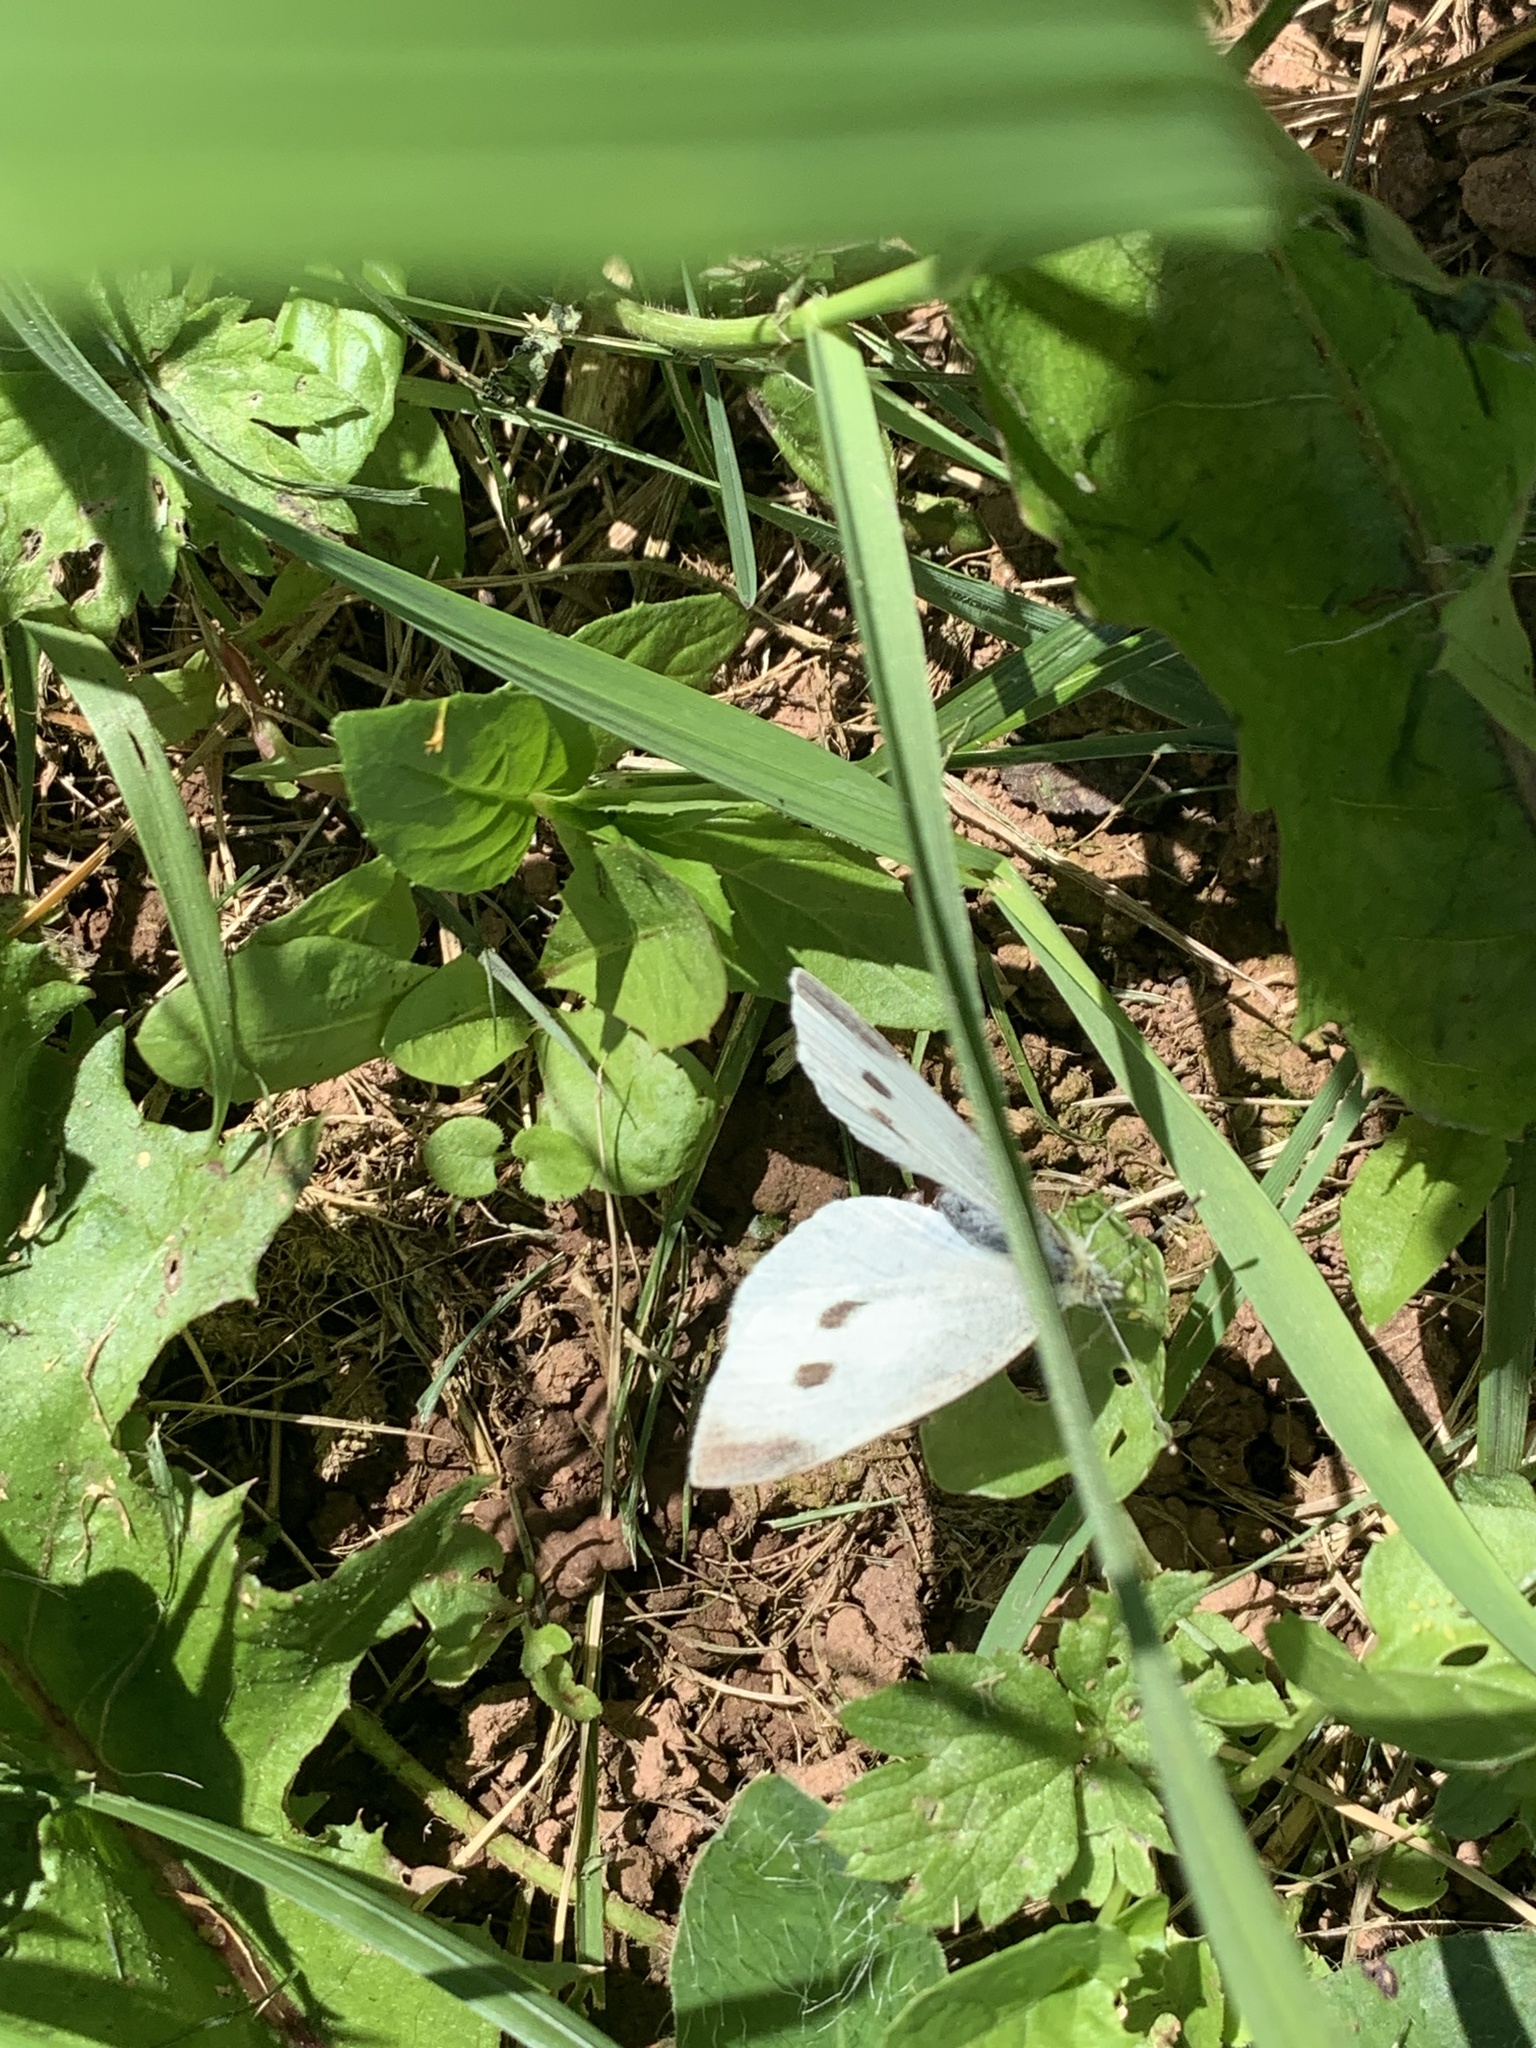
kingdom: Animalia
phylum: Arthropoda
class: Insecta
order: Lepidoptera
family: Pieridae
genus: Pieris
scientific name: Pieris rapae
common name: Small white
